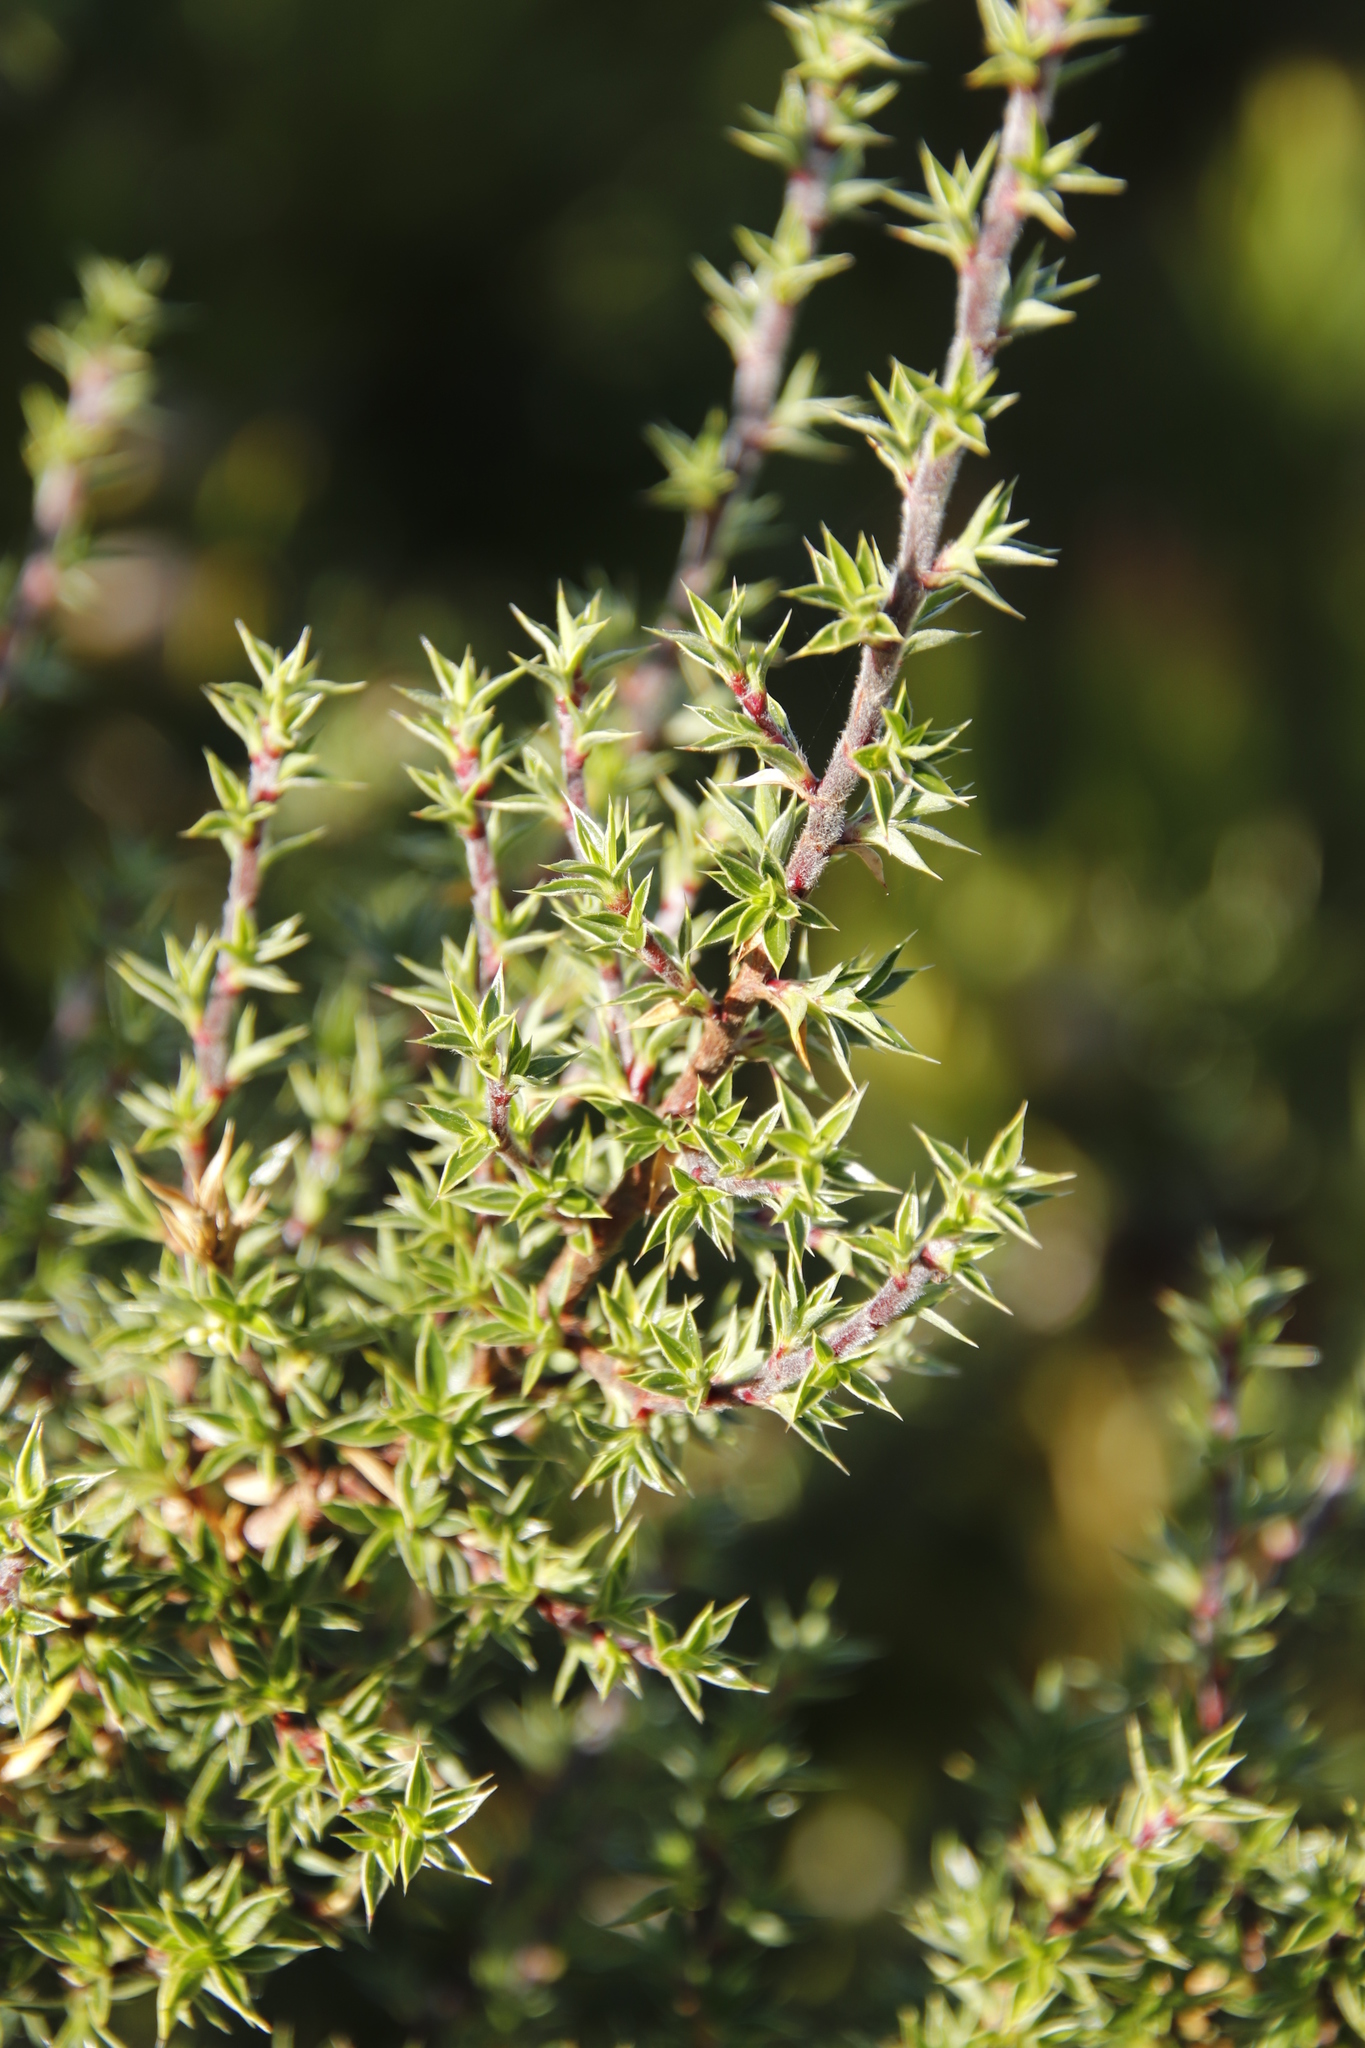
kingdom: Plantae
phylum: Tracheophyta
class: Magnoliopsida
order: Rosales
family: Rosaceae
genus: Cliffortia
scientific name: Cliffortia ruscifolia
